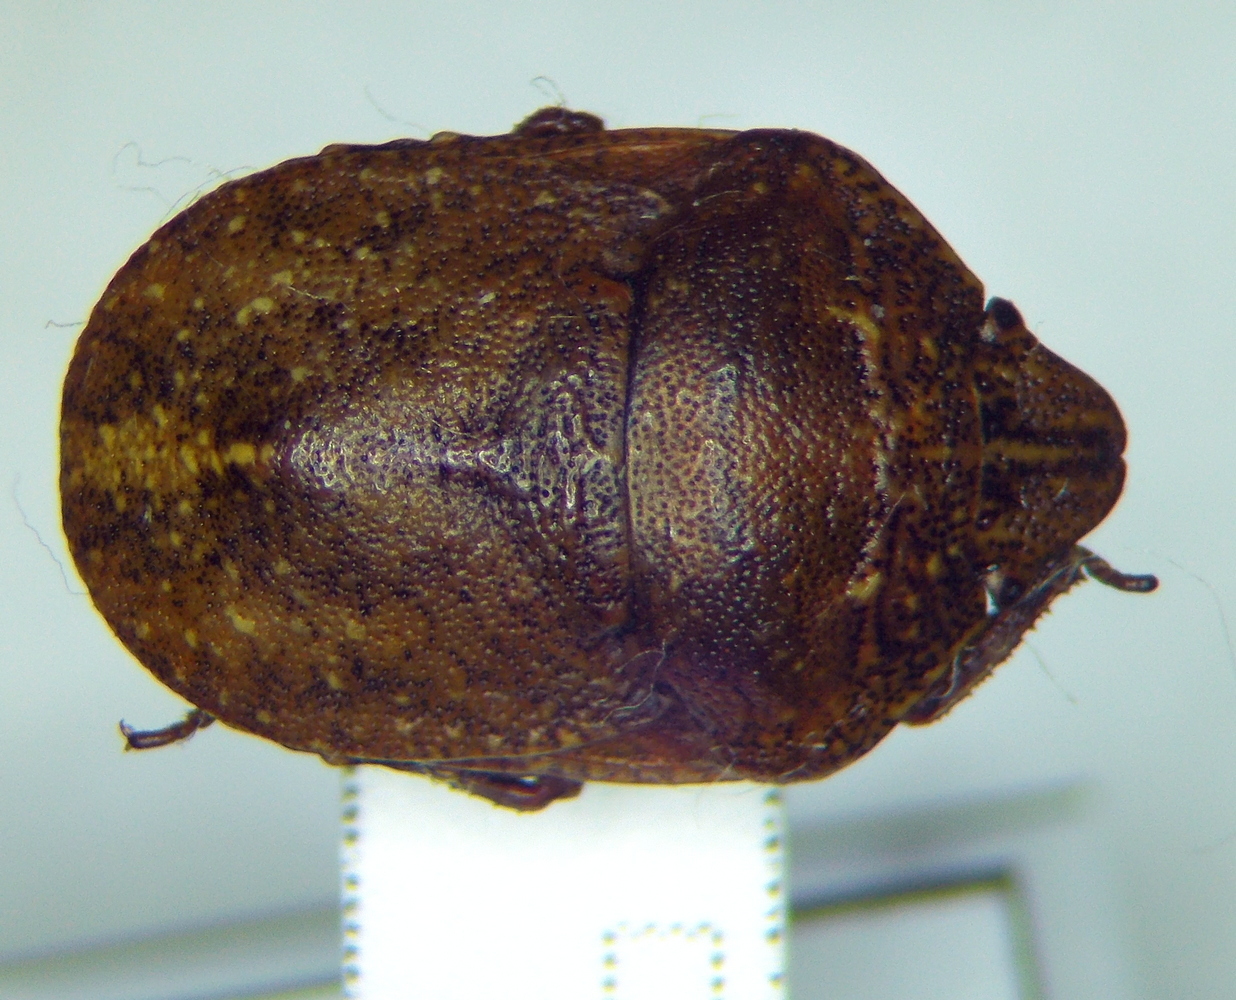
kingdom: Animalia
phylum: Arthropoda
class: Insecta
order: Hemiptera
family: Scutelleridae
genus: Psacasta
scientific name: Psacasta exanthematica
